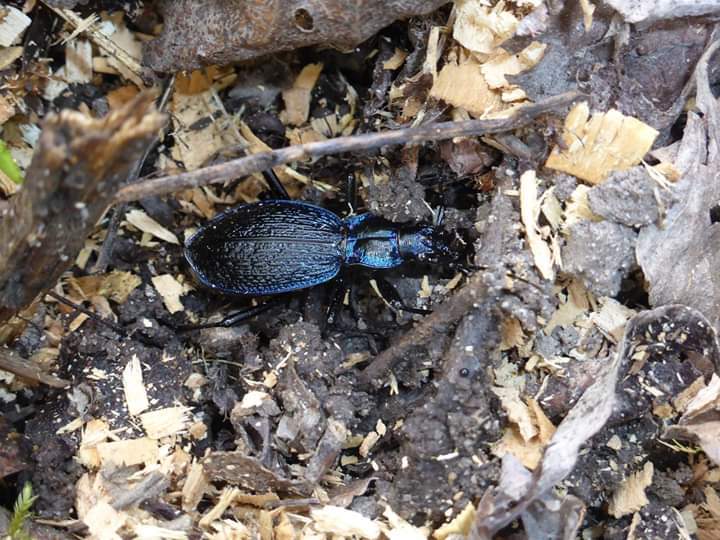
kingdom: Animalia
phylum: Arthropoda
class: Insecta
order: Coleoptera
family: Carabidae
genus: Carabus
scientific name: Carabus intricatus
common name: Blue ground beetle
